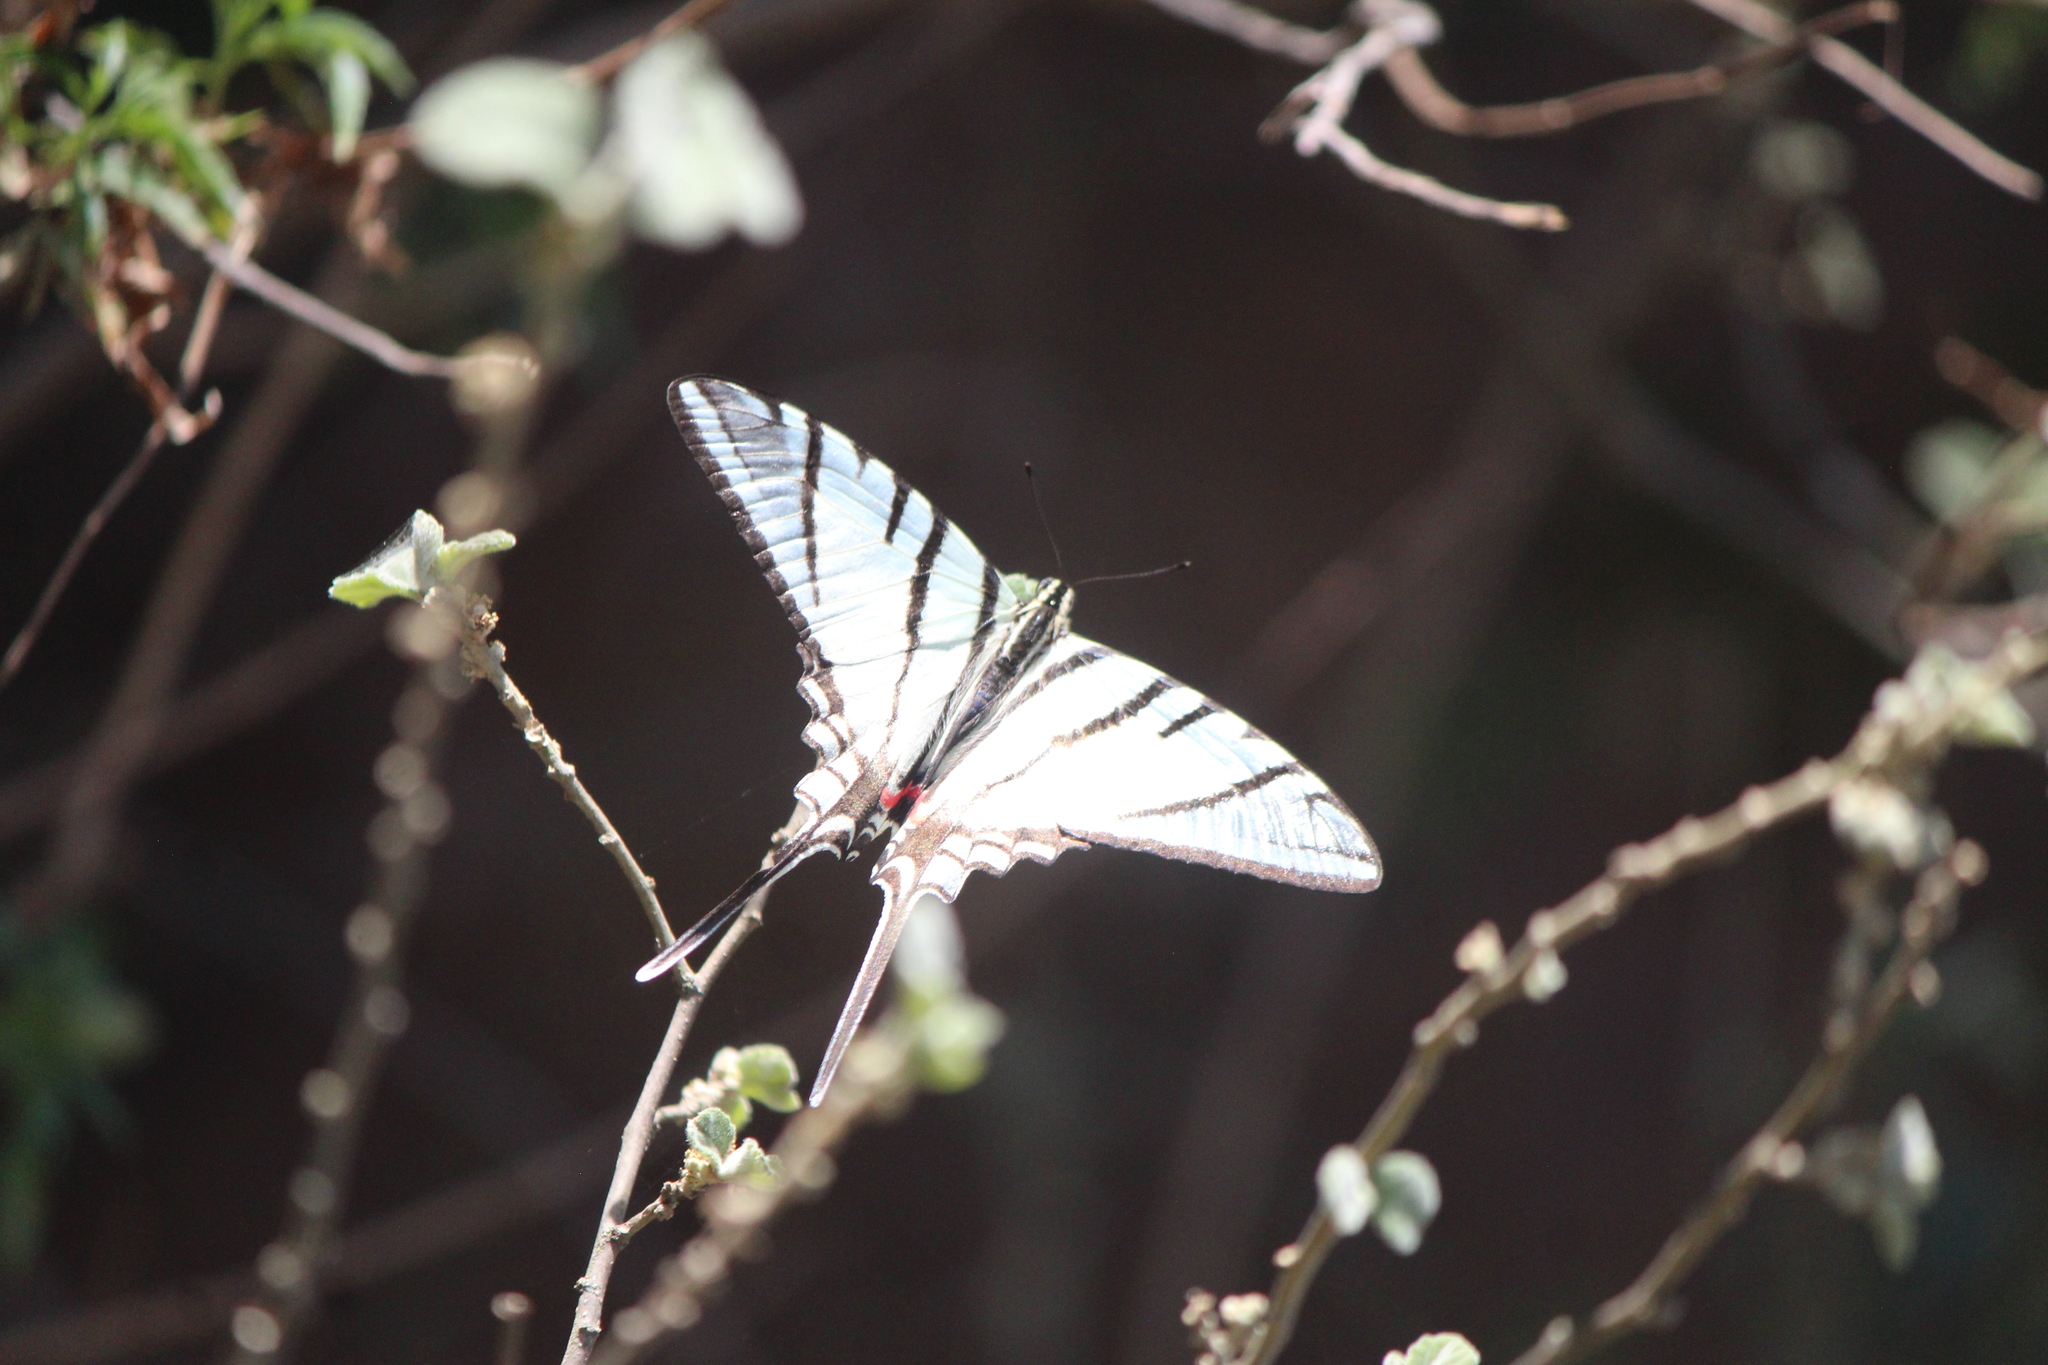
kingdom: Animalia
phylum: Arthropoda
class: Insecta
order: Lepidoptera
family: Papilionidae
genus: Protographium
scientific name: Protographium epidaus
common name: Mexican kite swallowtail
